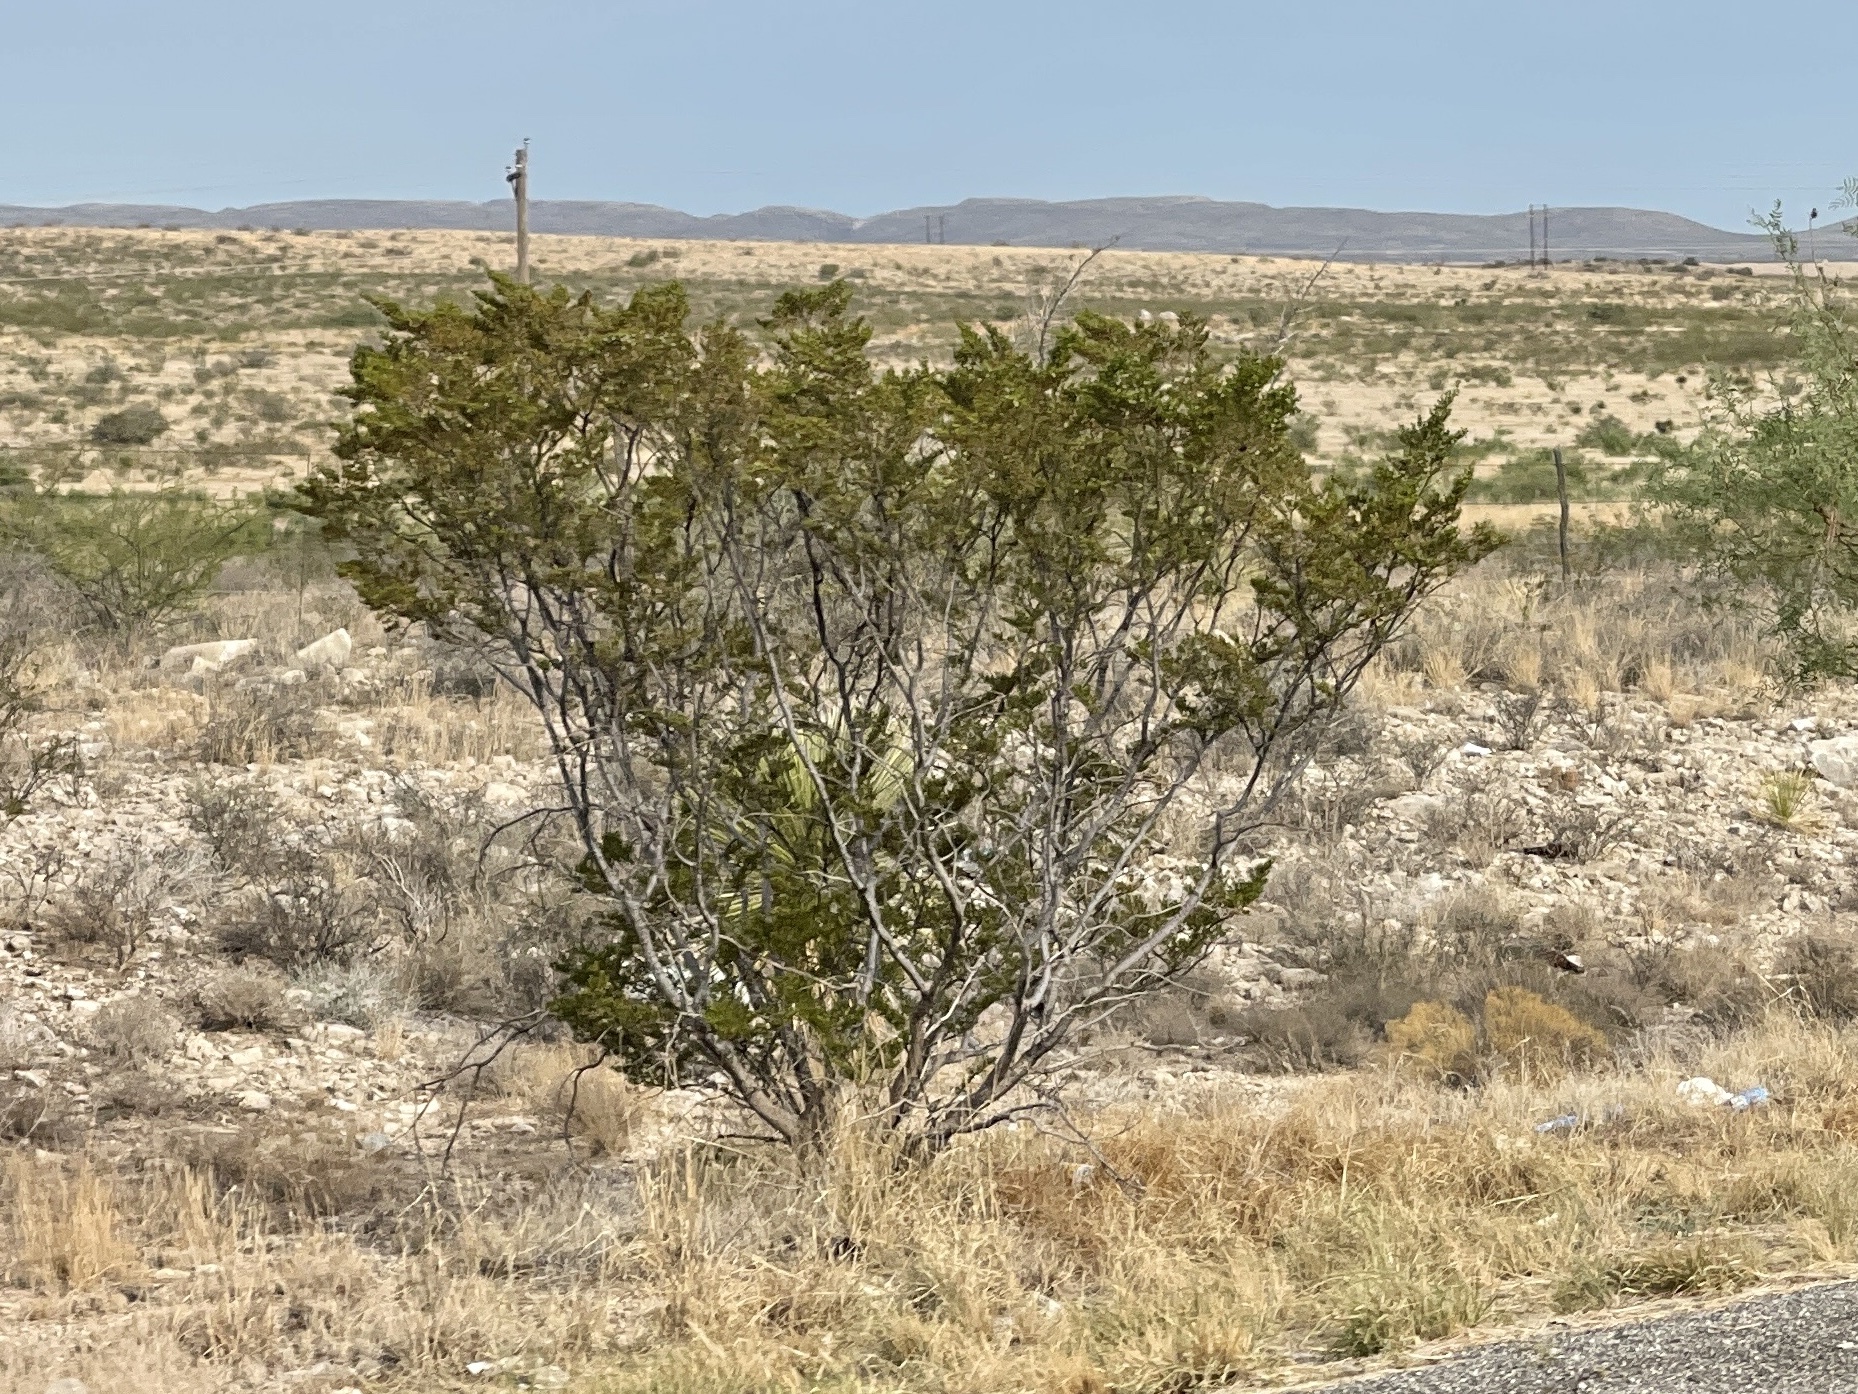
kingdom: Plantae
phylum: Tracheophyta
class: Magnoliopsida
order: Zygophyllales
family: Zygophyllaceae
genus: Larrea
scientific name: Larrea tridentata
